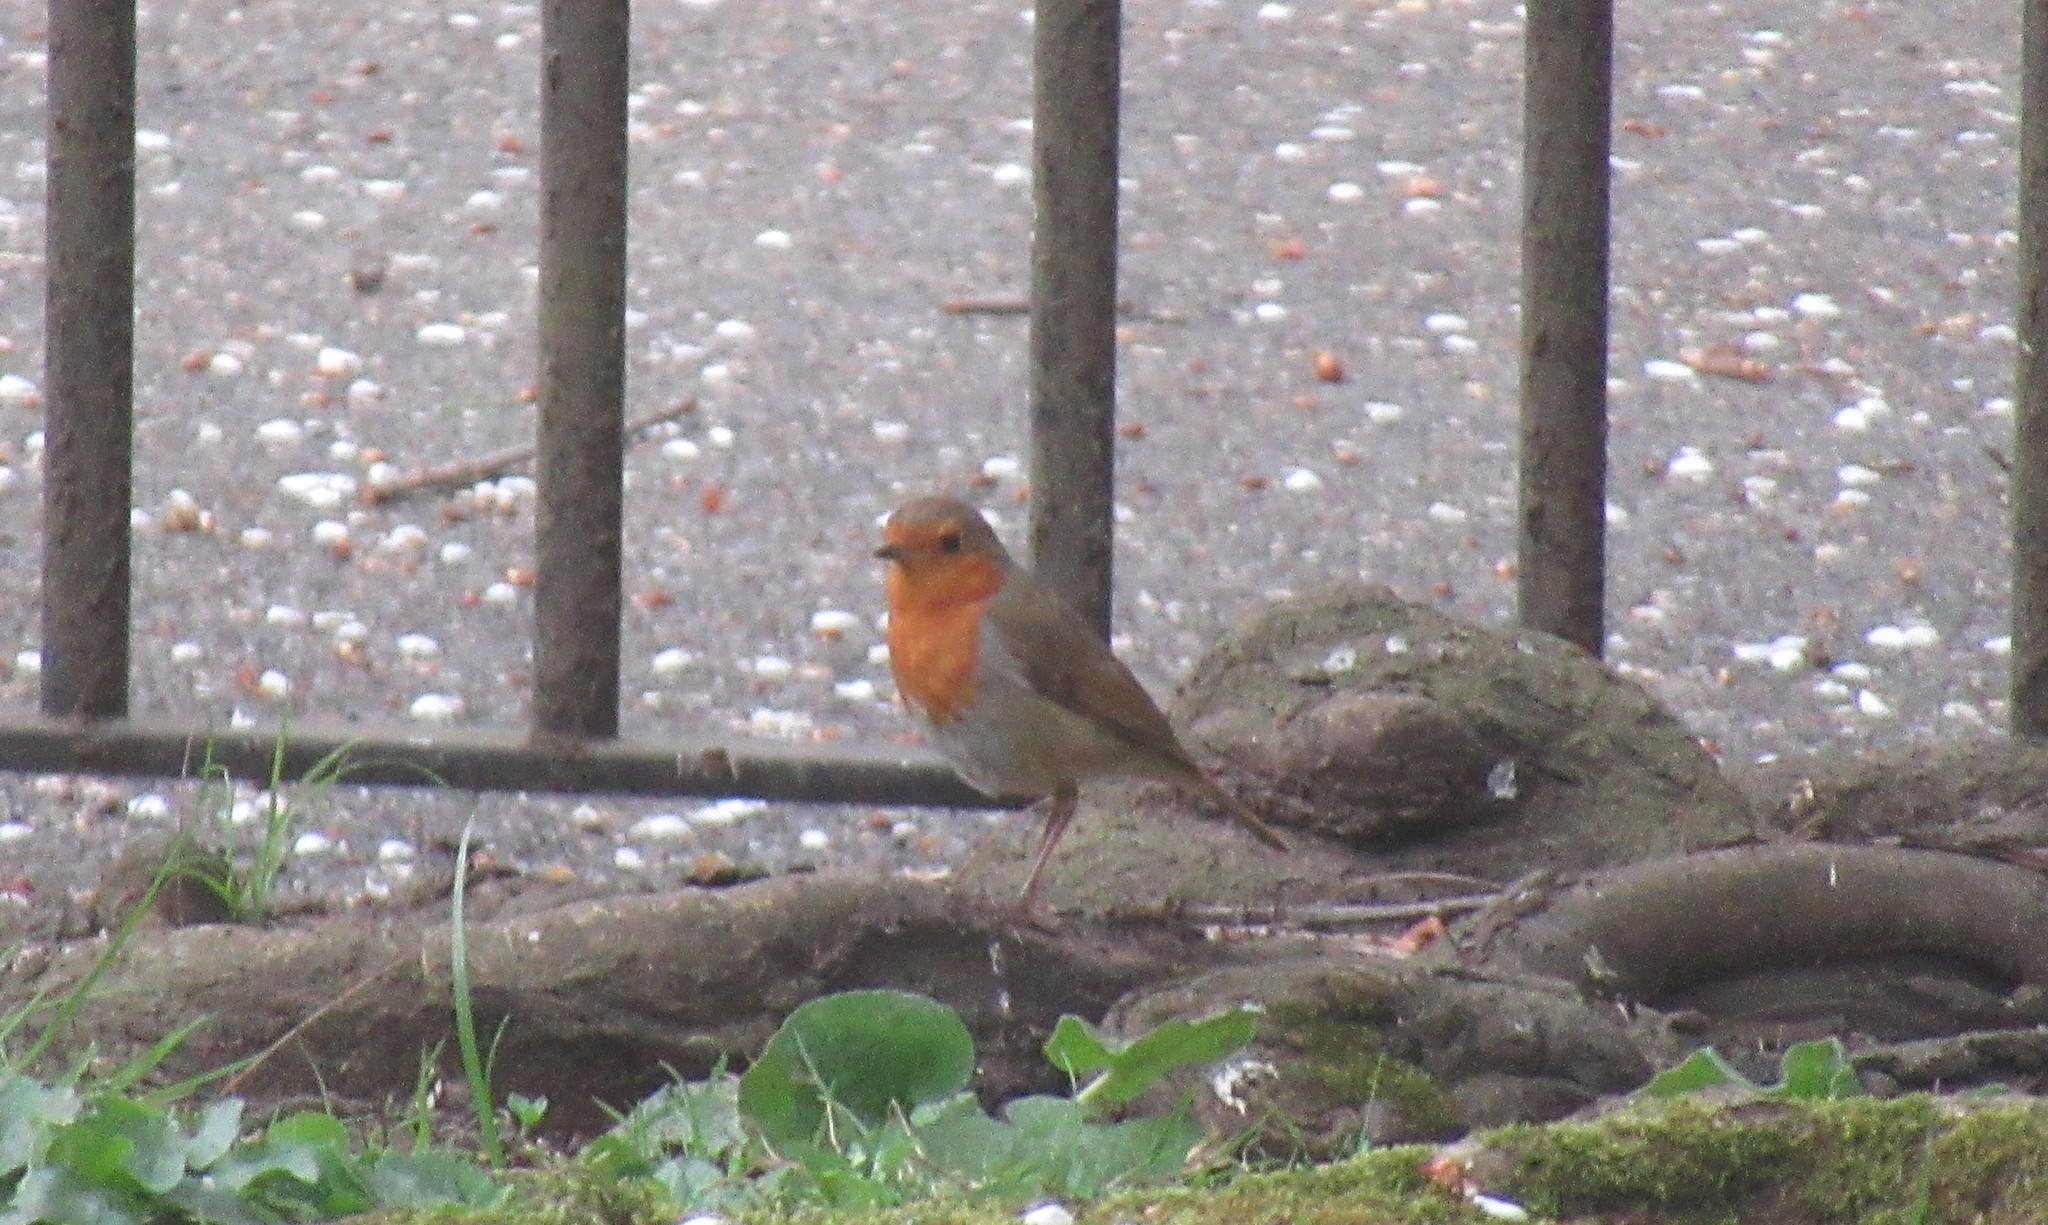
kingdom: Animalia
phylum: Chordata
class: Aves
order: Passeriformes
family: Muscicapidae
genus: Erithacus
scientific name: Erithacus rubecula
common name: European robin
